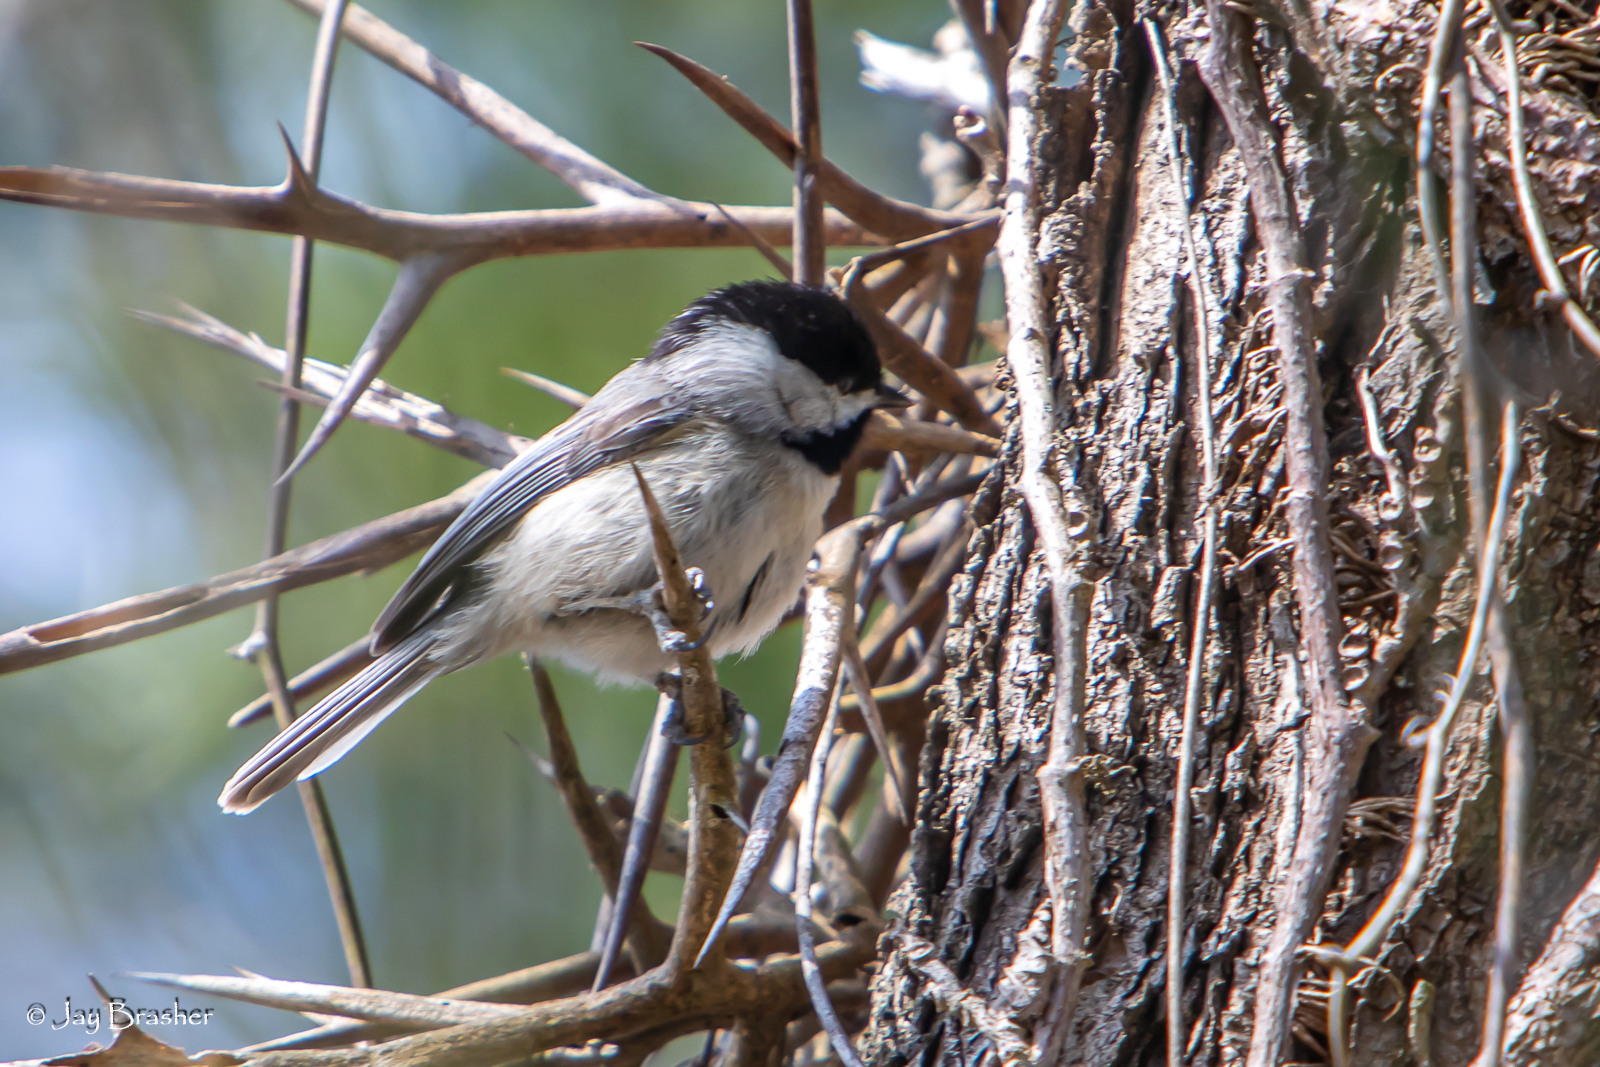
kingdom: Animalia
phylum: Chordata
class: Aves
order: Passeriformes
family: Paridae
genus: Poecile
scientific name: Poecile carolinensis
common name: Carolina chickadee
